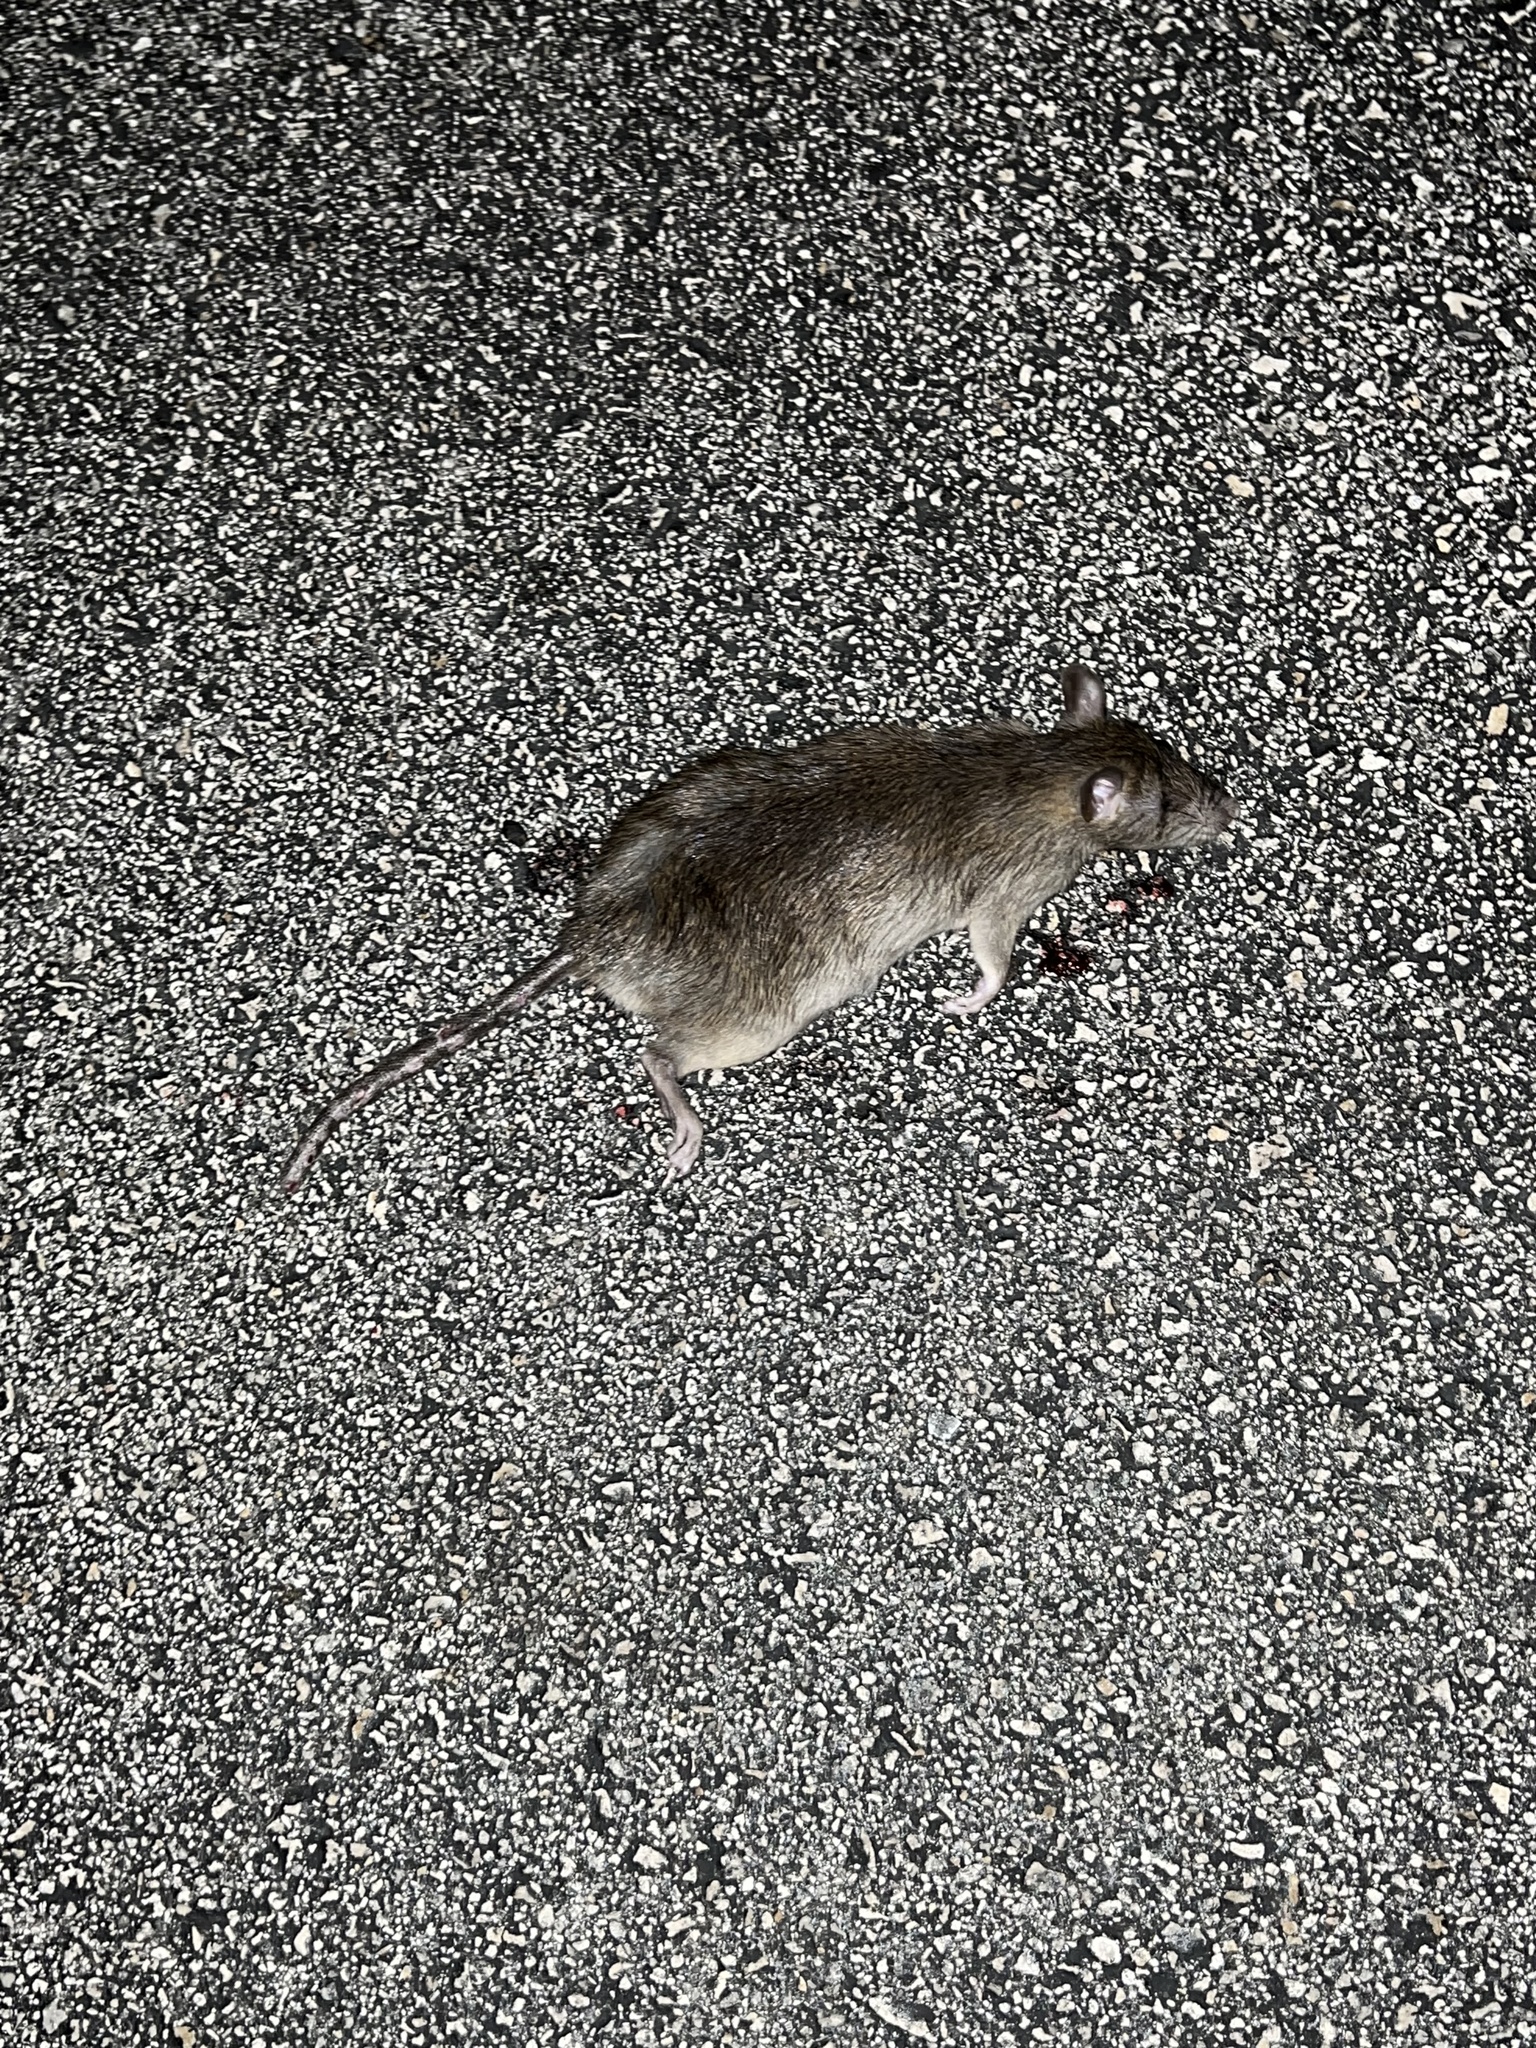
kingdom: Animalia
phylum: Chordata
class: Mammalia
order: Rodentia
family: Muridae
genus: Rattus
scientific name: Rattus rattus
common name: Black rat
